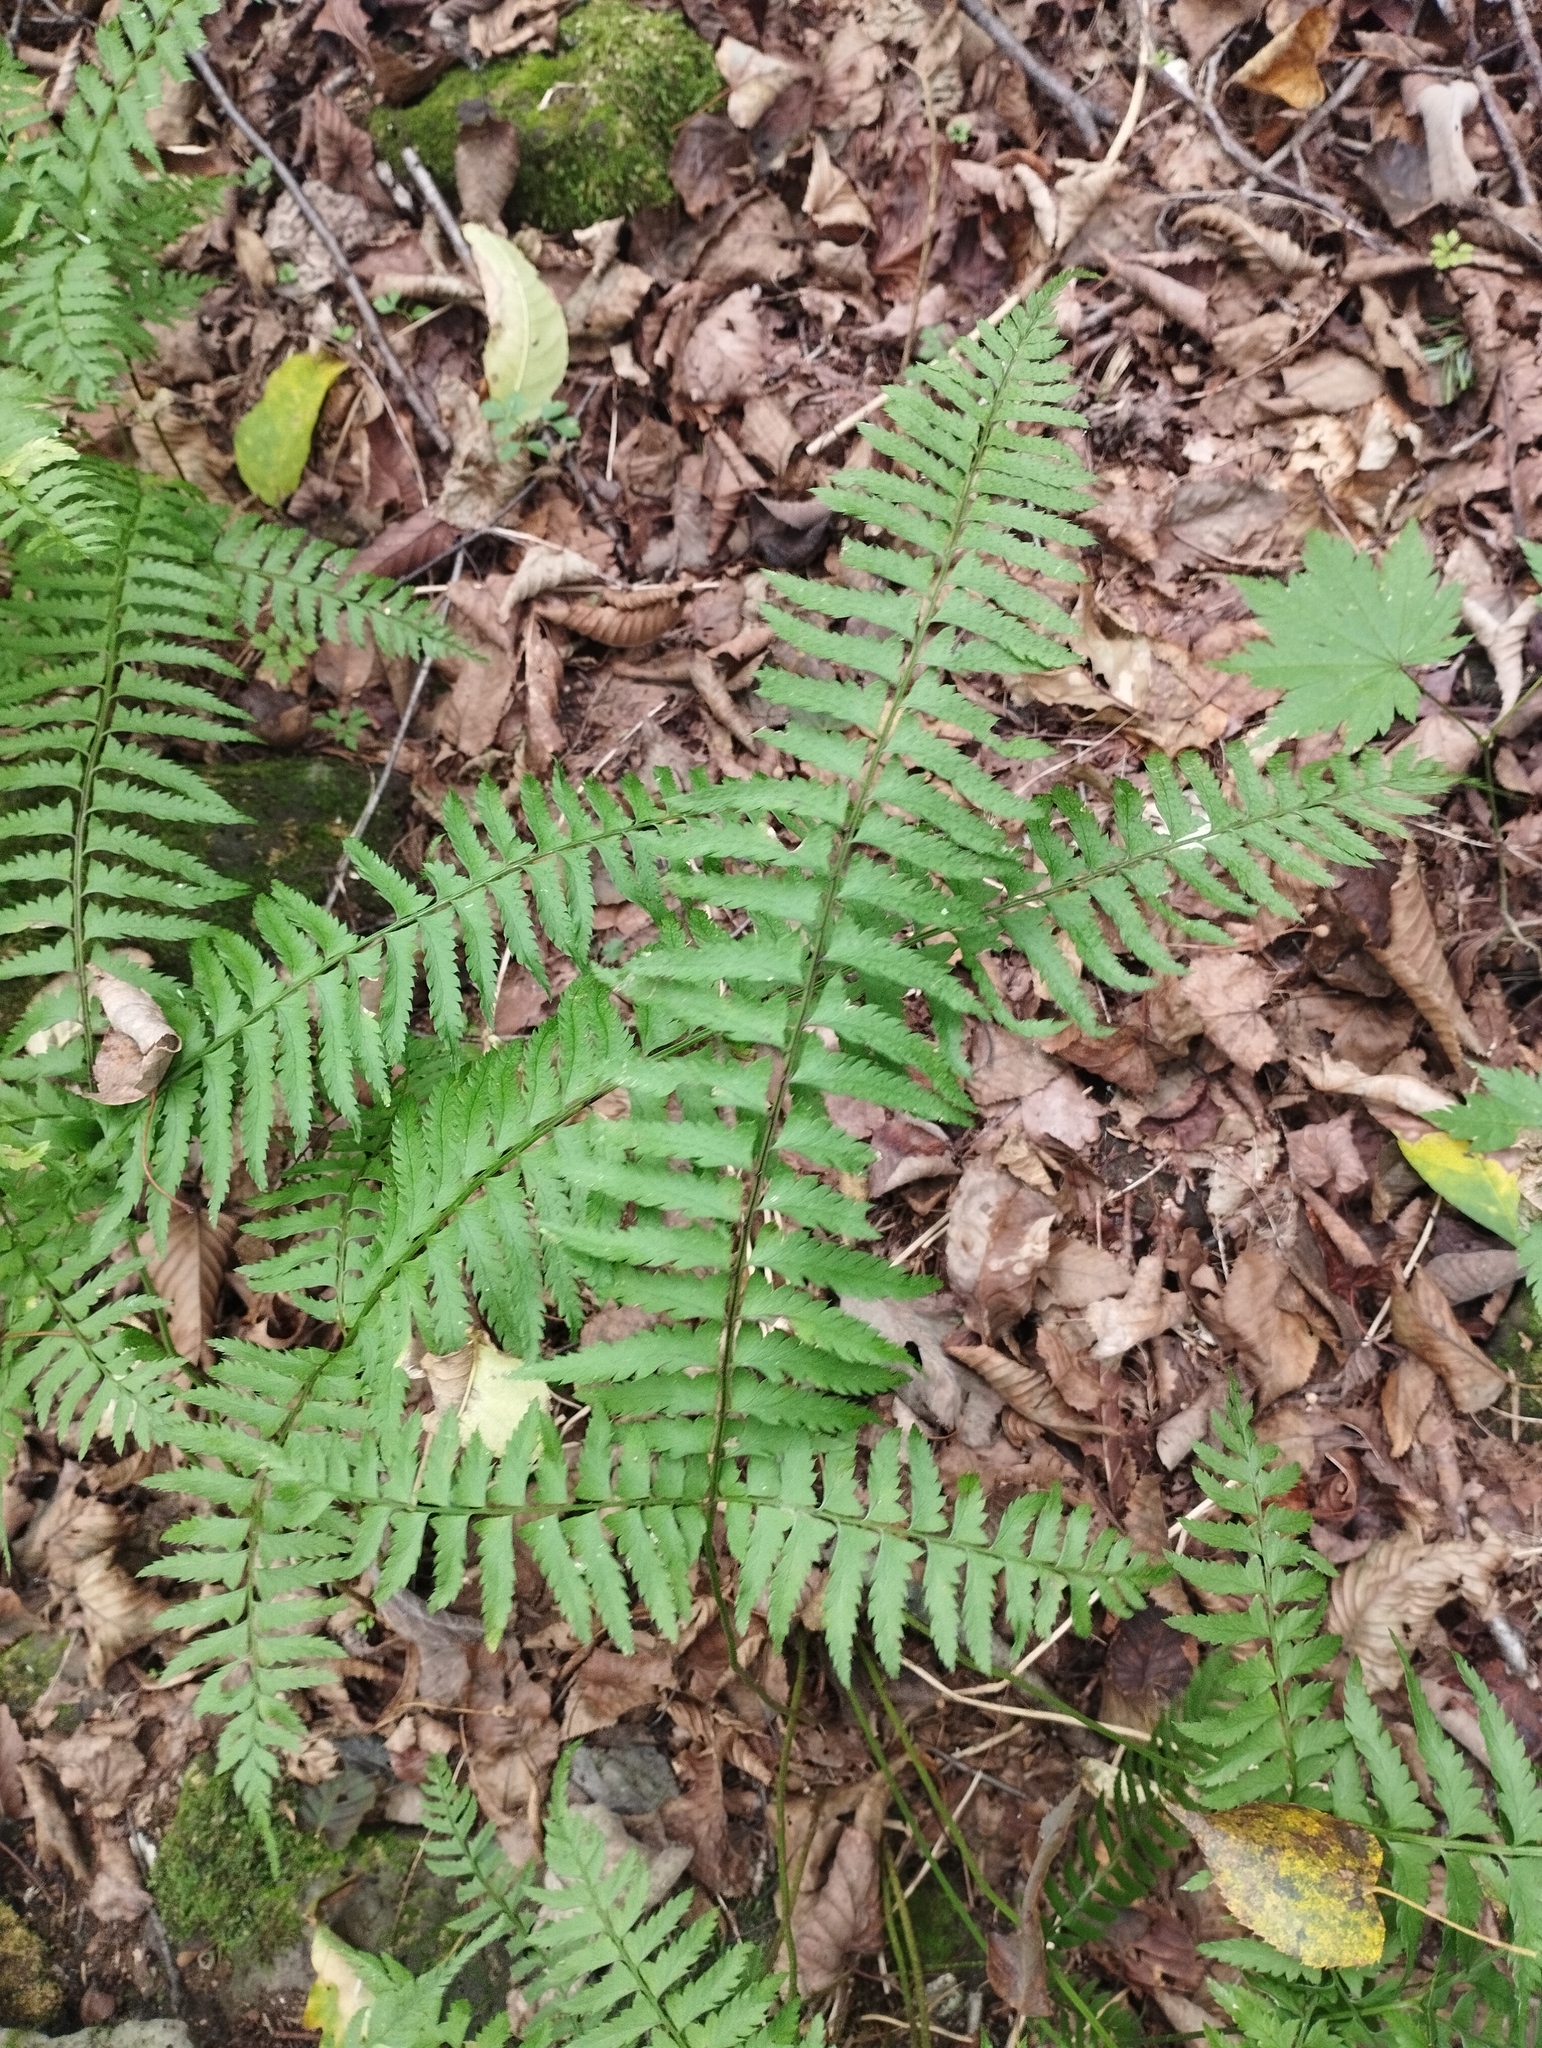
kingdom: Plantae
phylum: Tracheophyta
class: Polypodiopsida
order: Polypodiales
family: Dryopteridaceae
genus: Polystichum
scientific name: Polystichum tripteron
